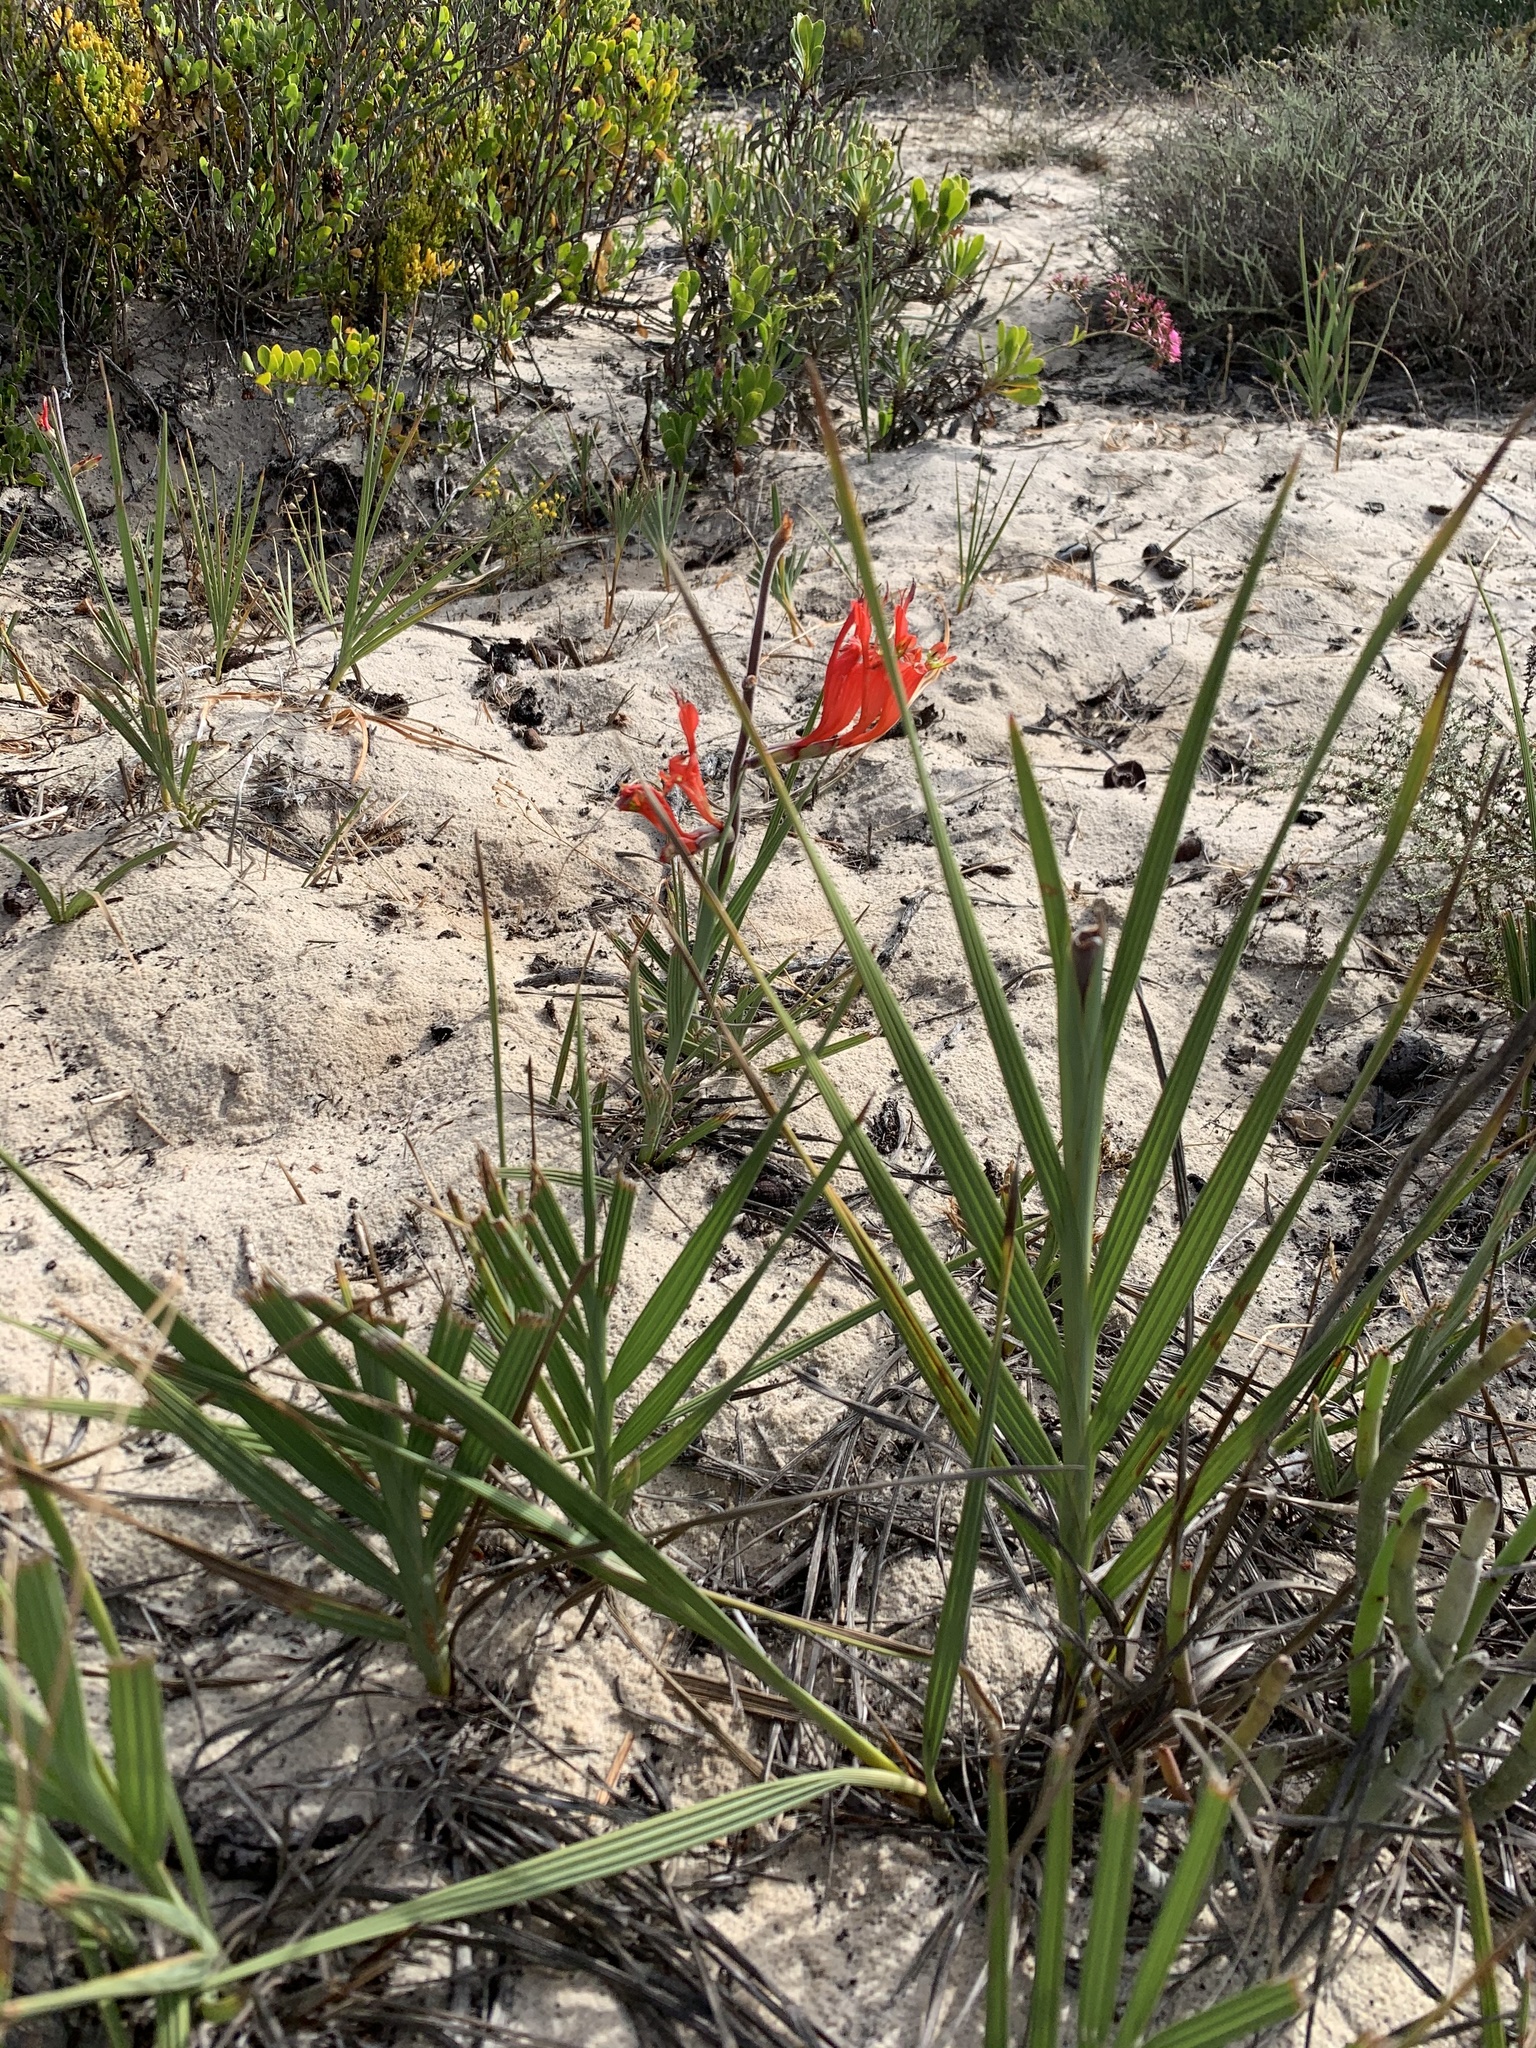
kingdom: Plantae
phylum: Tracheophyta
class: Liliopsida
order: Asparagales
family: Iridaceae
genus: Babiana
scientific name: Babiana hirsuta
